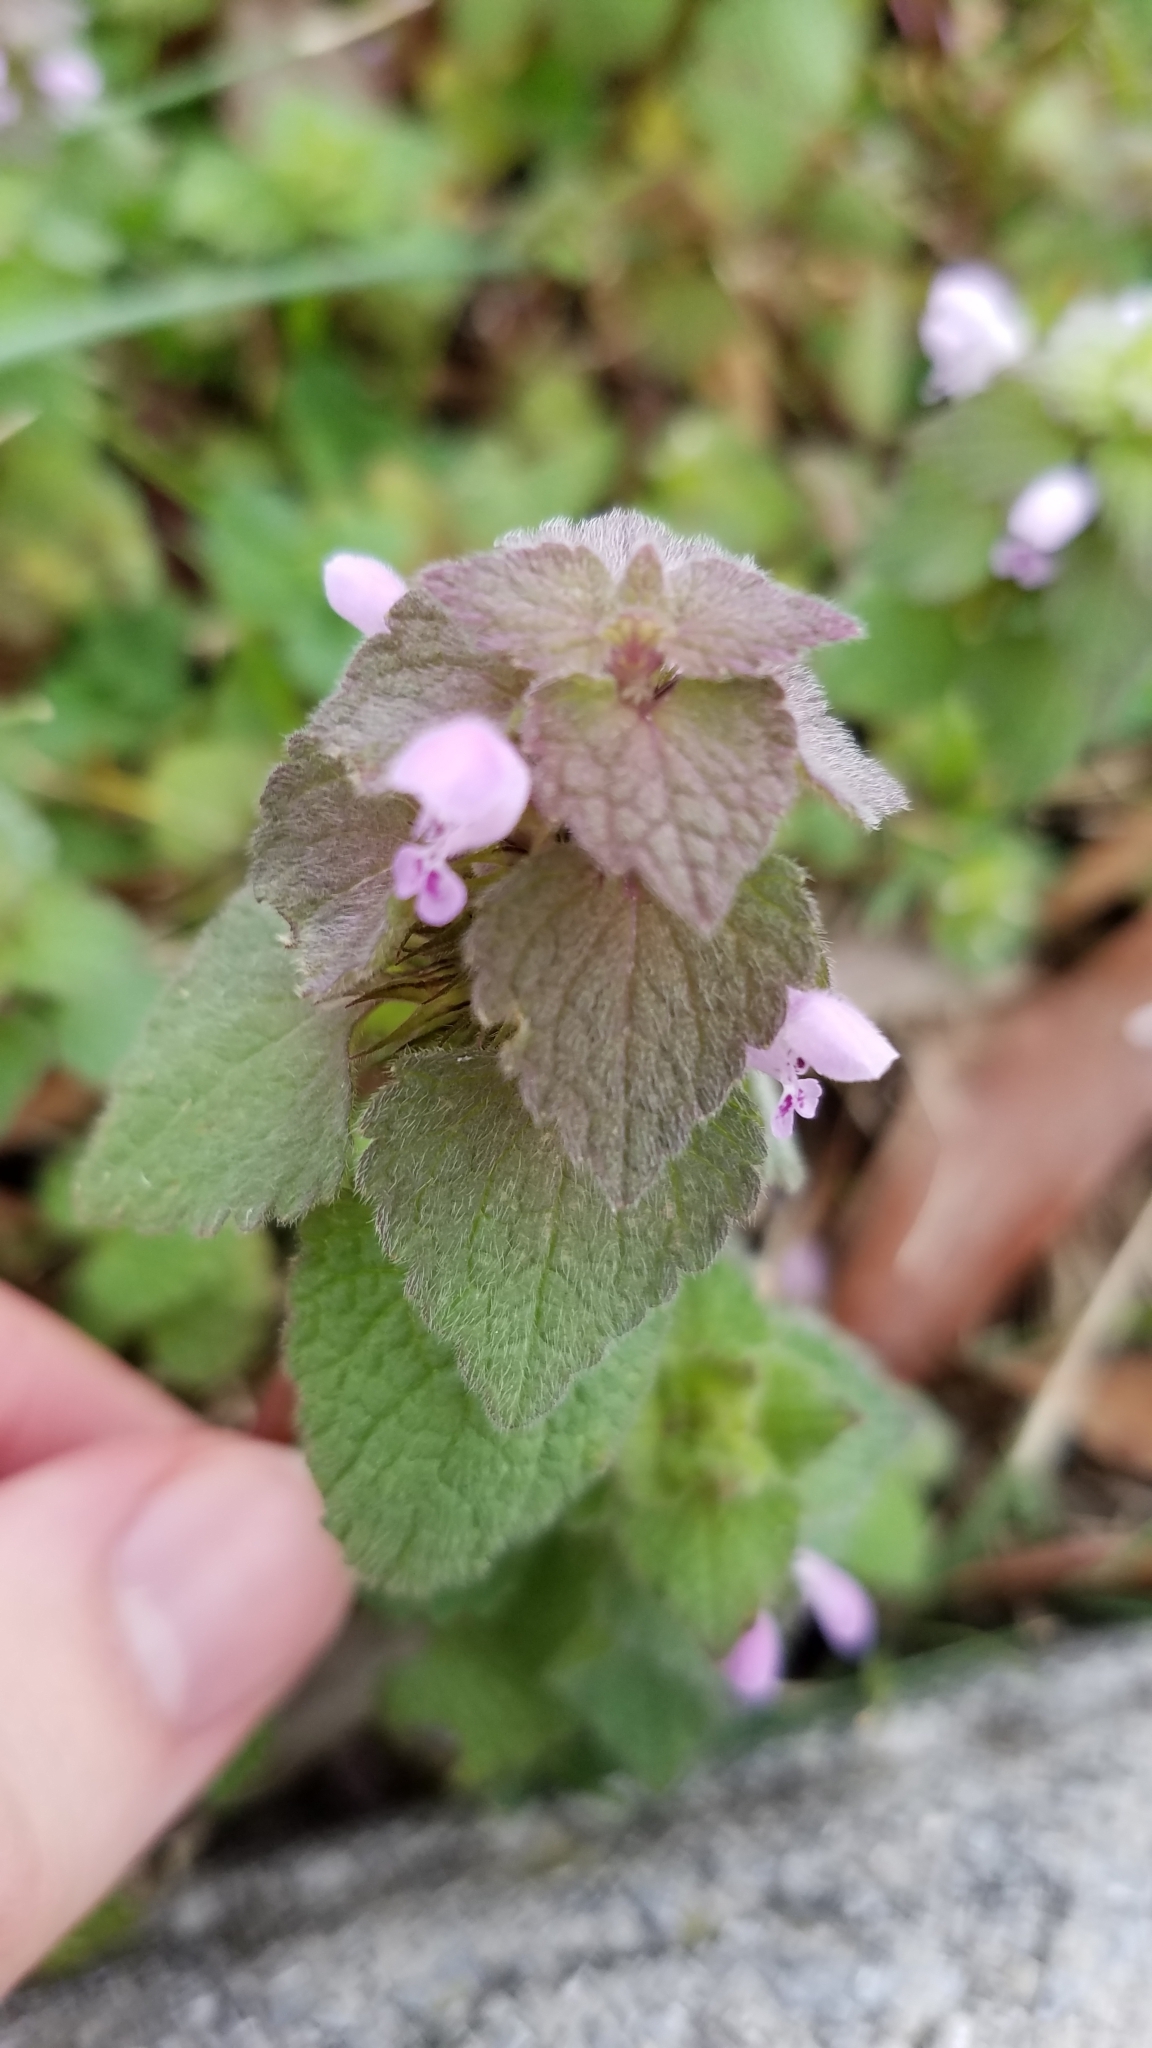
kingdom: Plantae
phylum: Tracheophyta
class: Magnoliopsida
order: Lamiales
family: Lamiaceae
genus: Lamium
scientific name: Lamium purpureum
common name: Red dead-nettle
